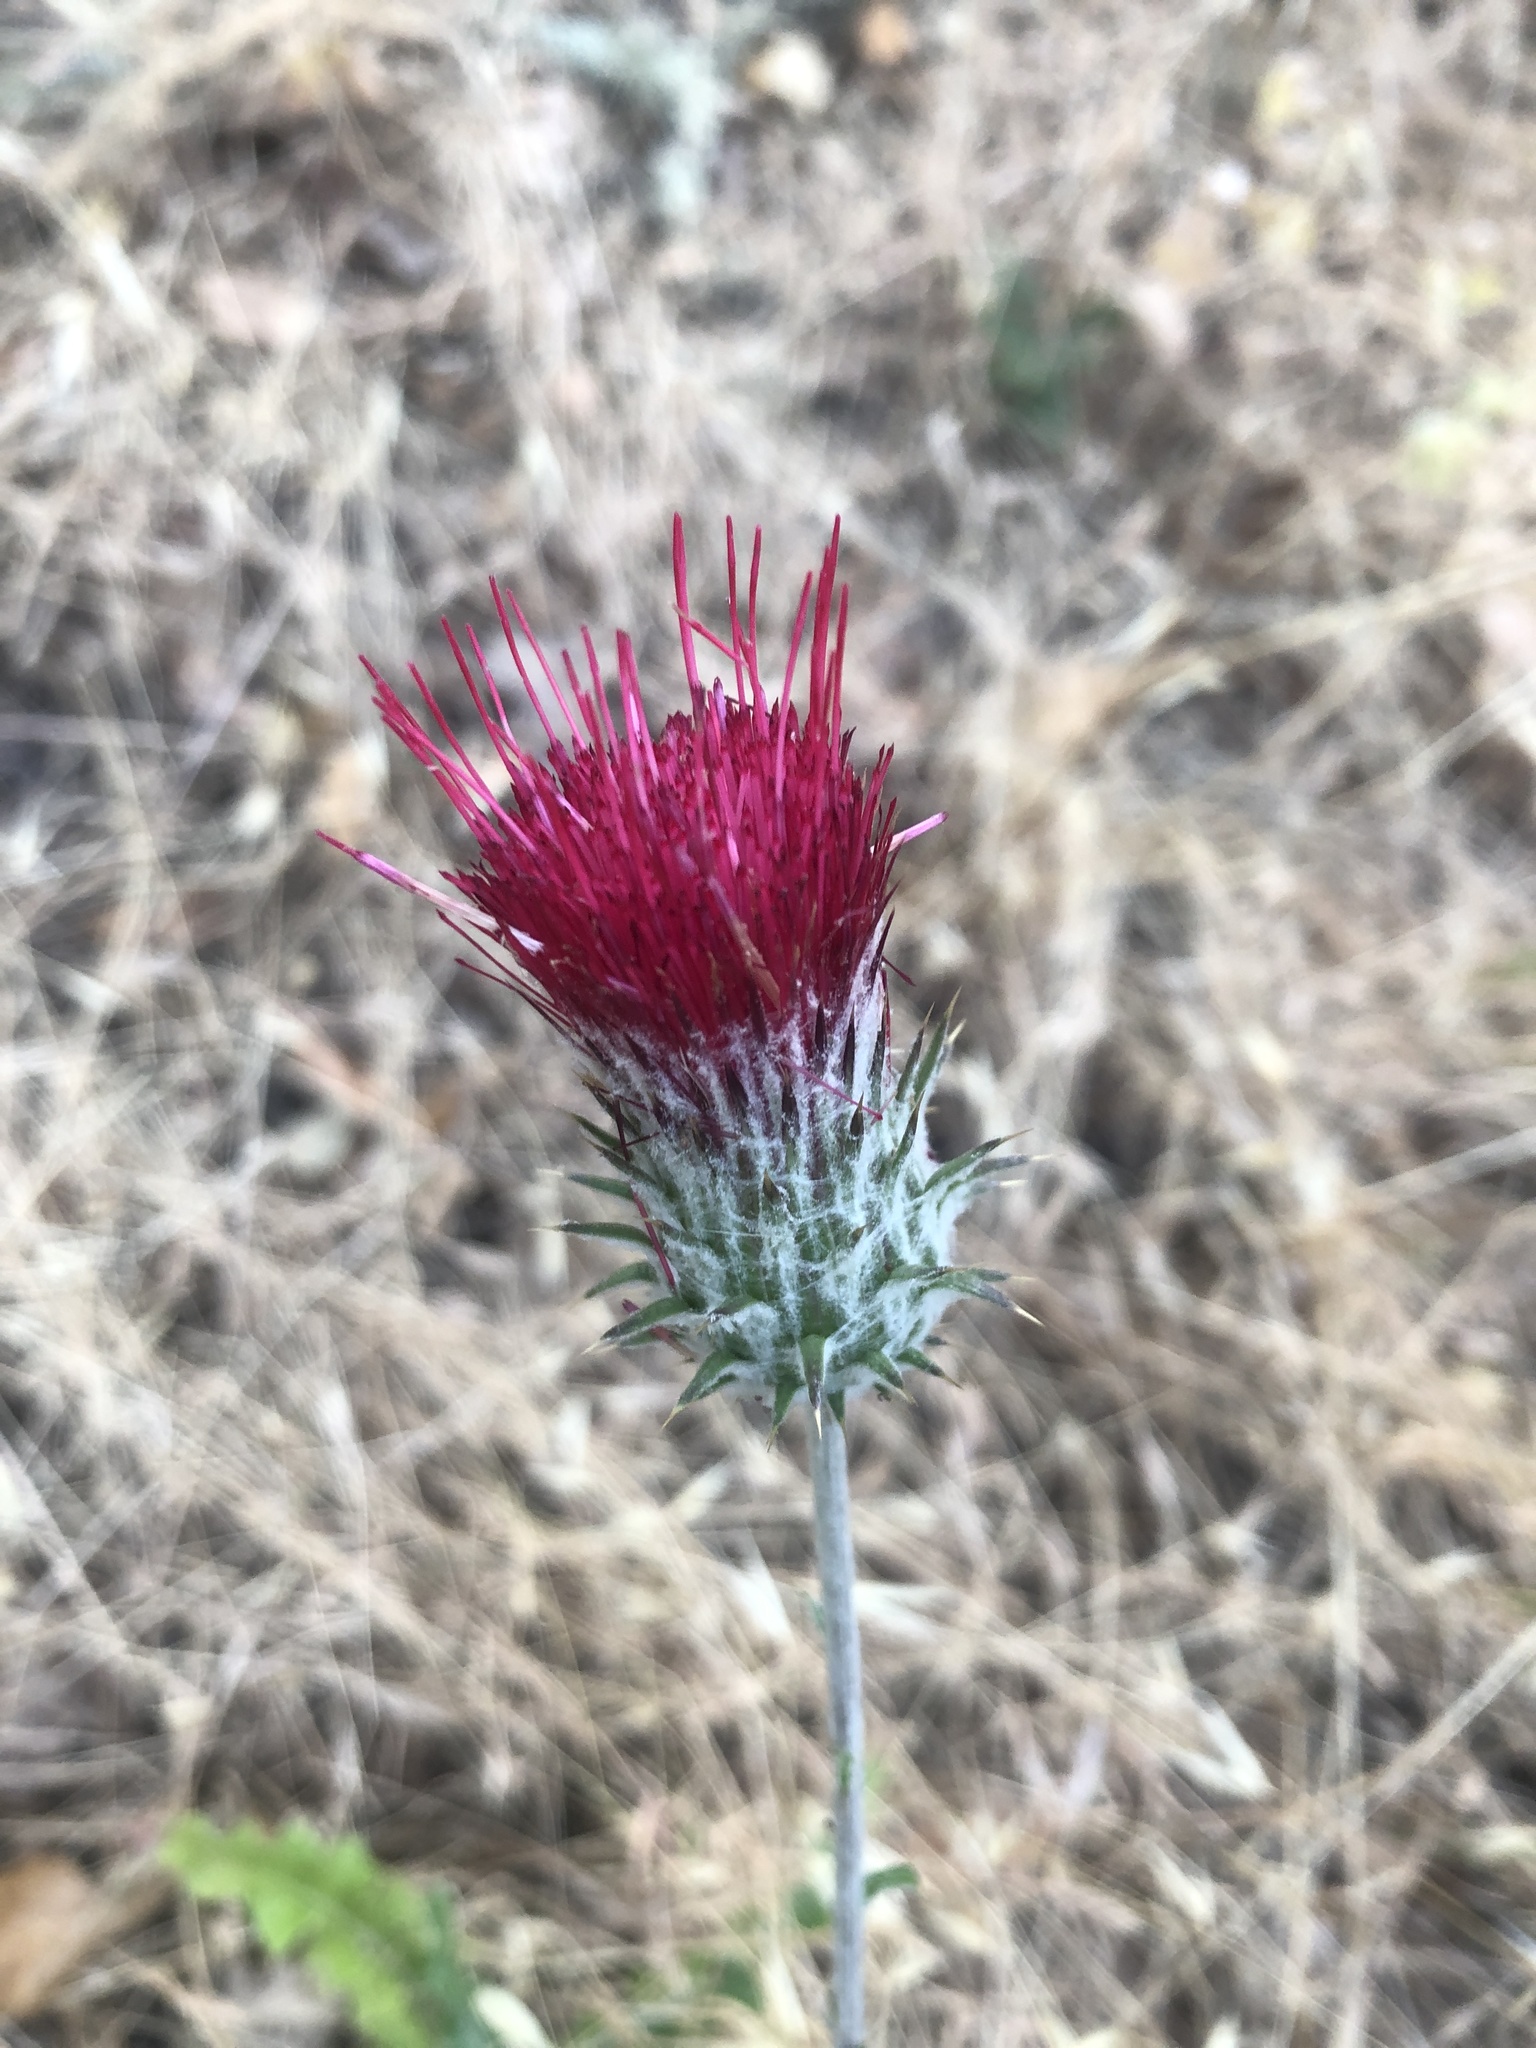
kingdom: Plantae
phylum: Tracheophyta
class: Magnoliopsida
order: Asterales
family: Asteraceae
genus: Cirsium
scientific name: Cirsium occidentale
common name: Western thistle
